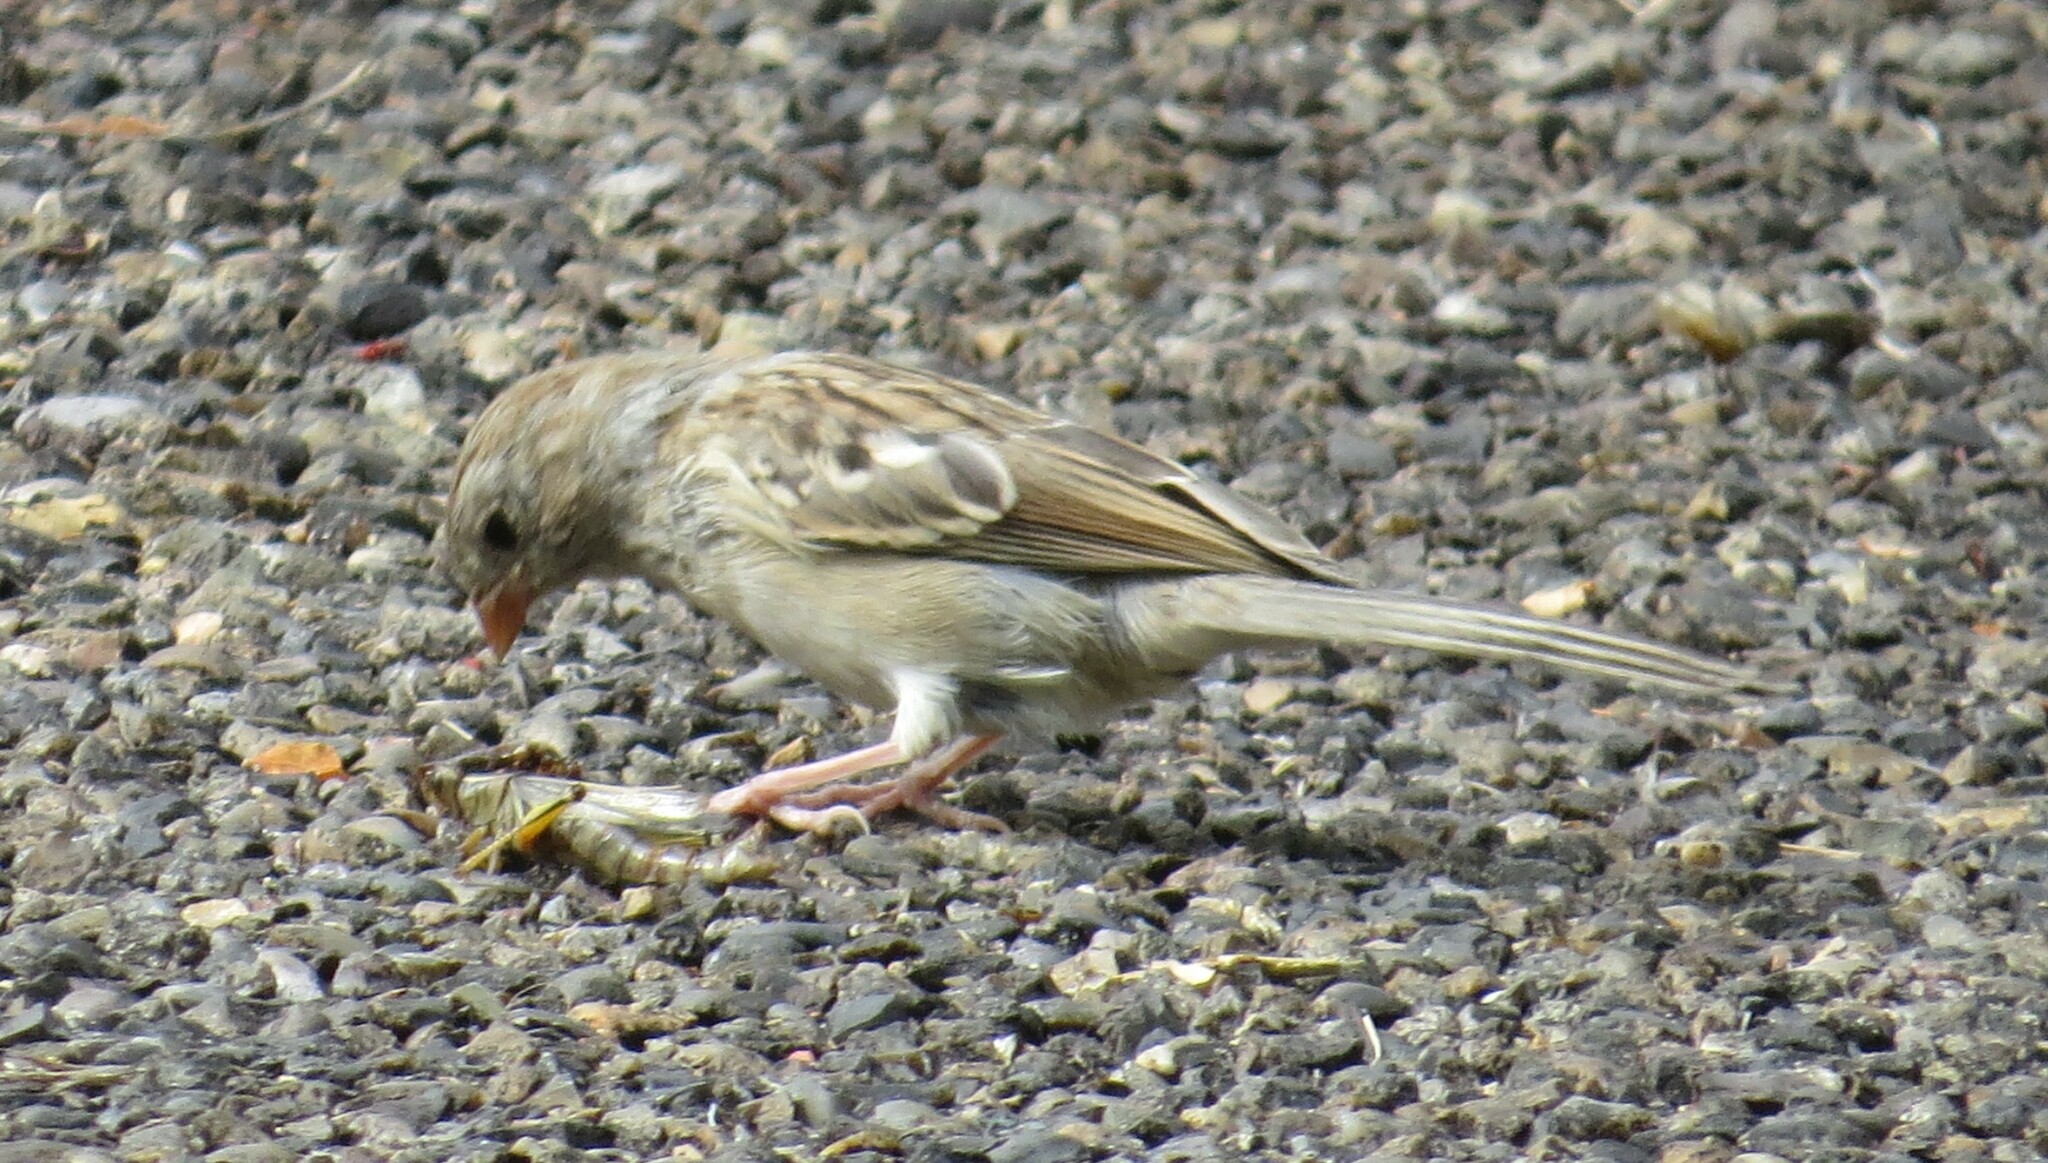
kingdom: Animalia
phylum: Chordata
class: Aves
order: Passeriformes
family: Passerellidae
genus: Spizella
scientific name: Spizella pusilla
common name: Field sparrow
